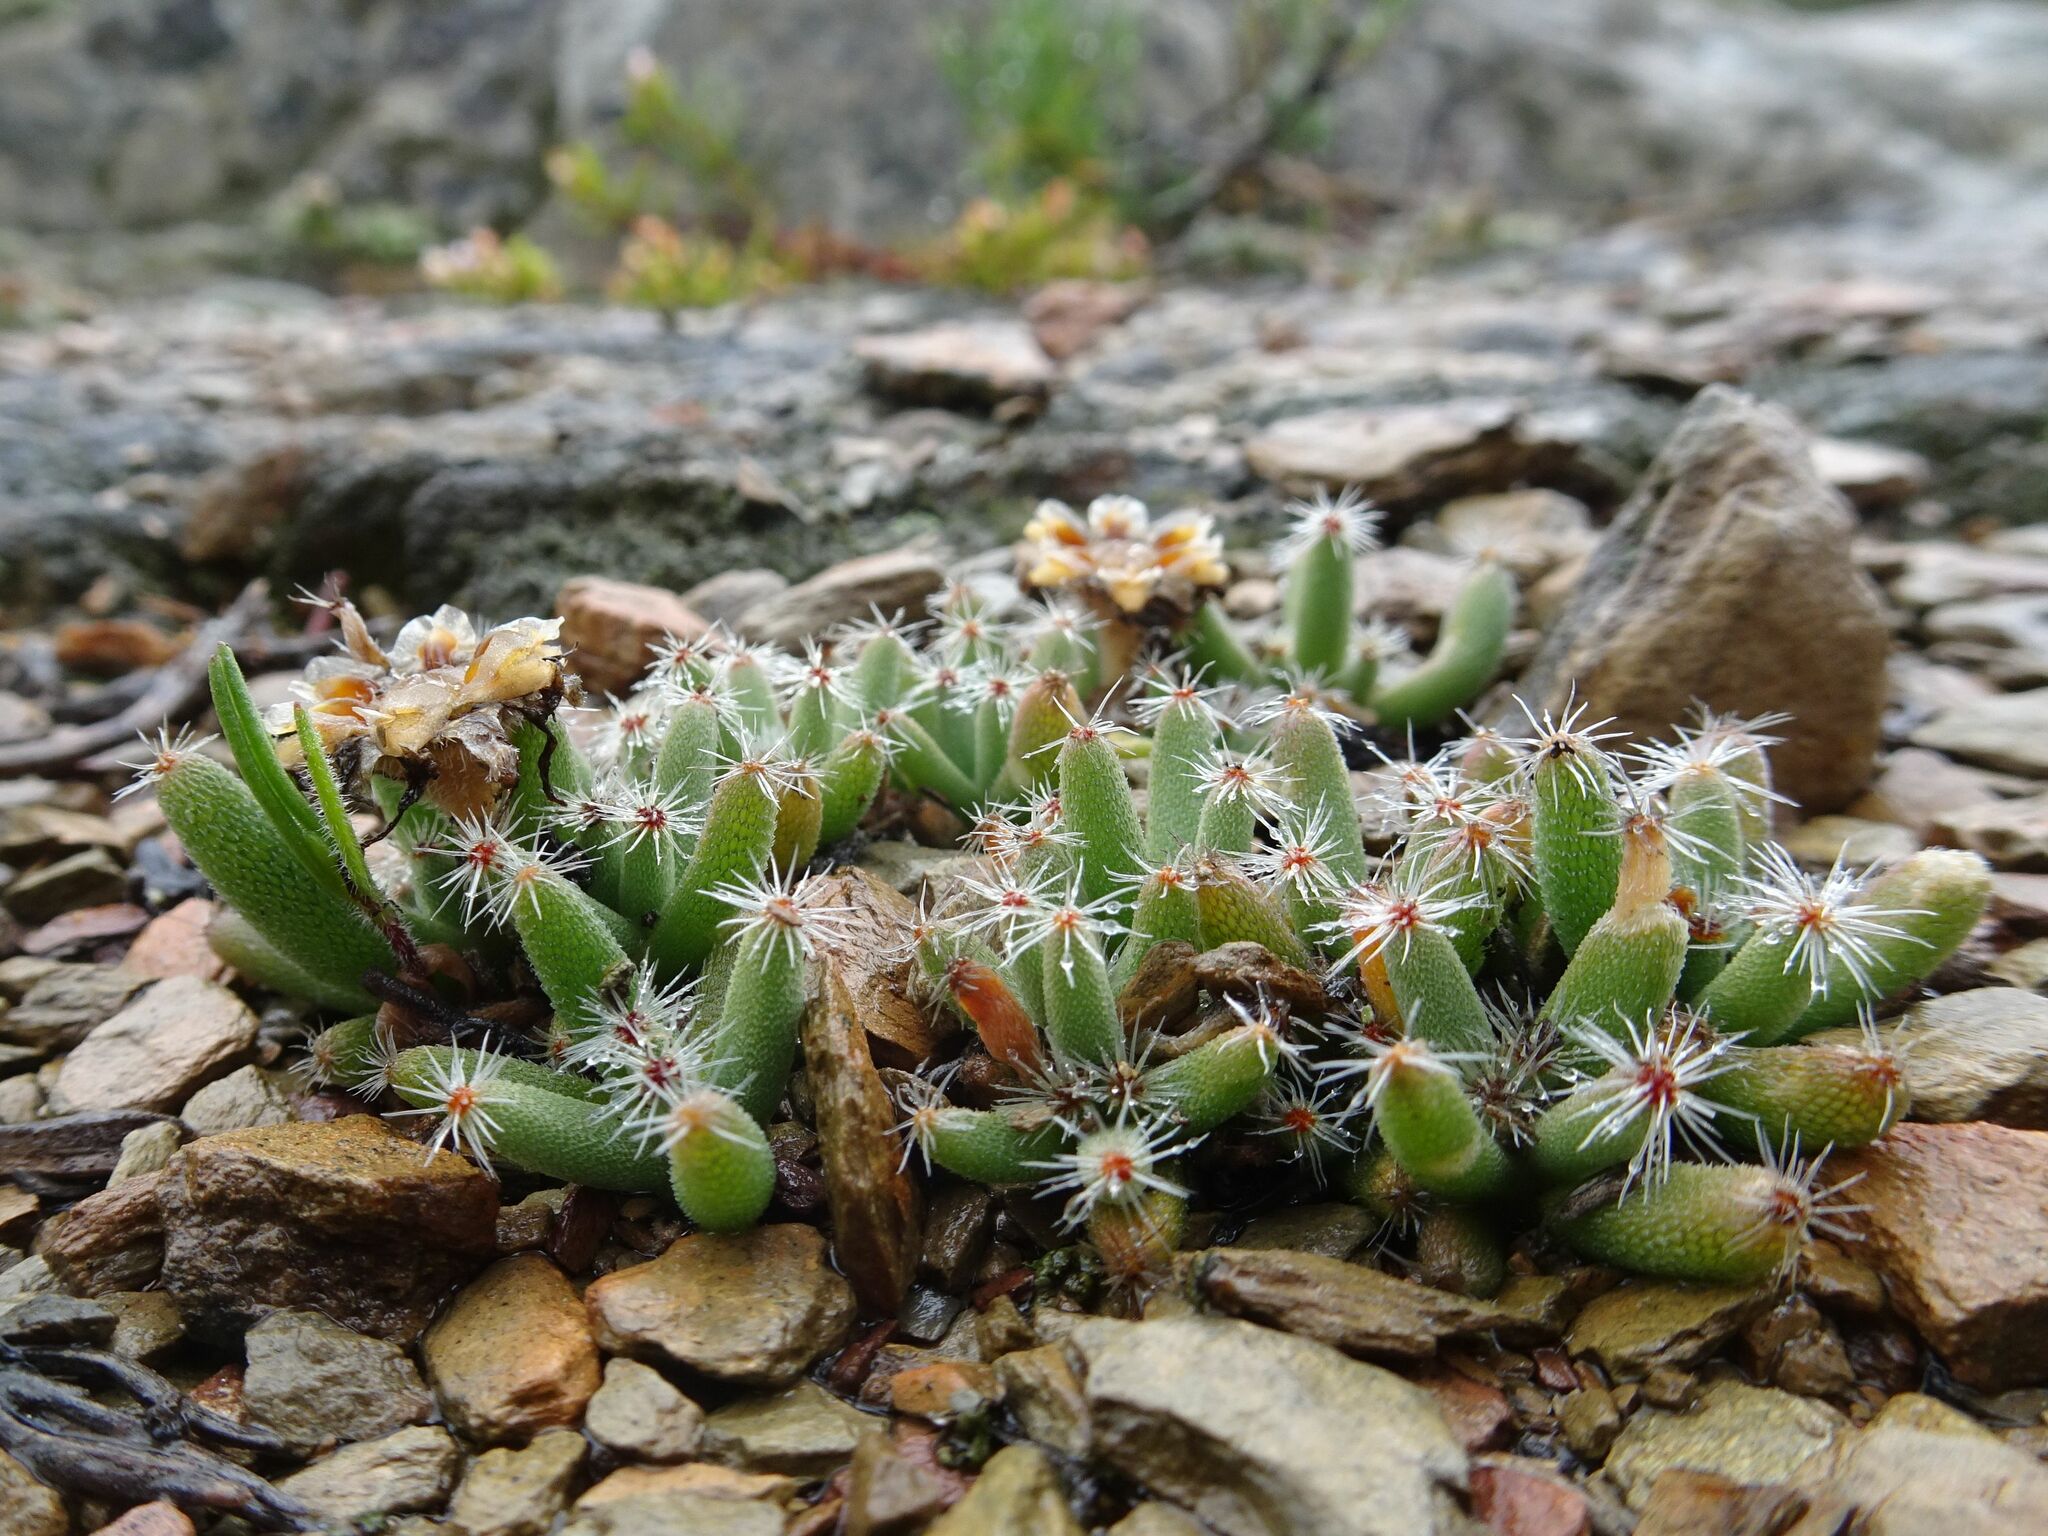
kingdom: Plantae
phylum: Tracheophyta
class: Magnoliopsida
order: Caryophyllales
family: Aizoaceae
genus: Trichodiadema
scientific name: Trichodiadema marlothii
